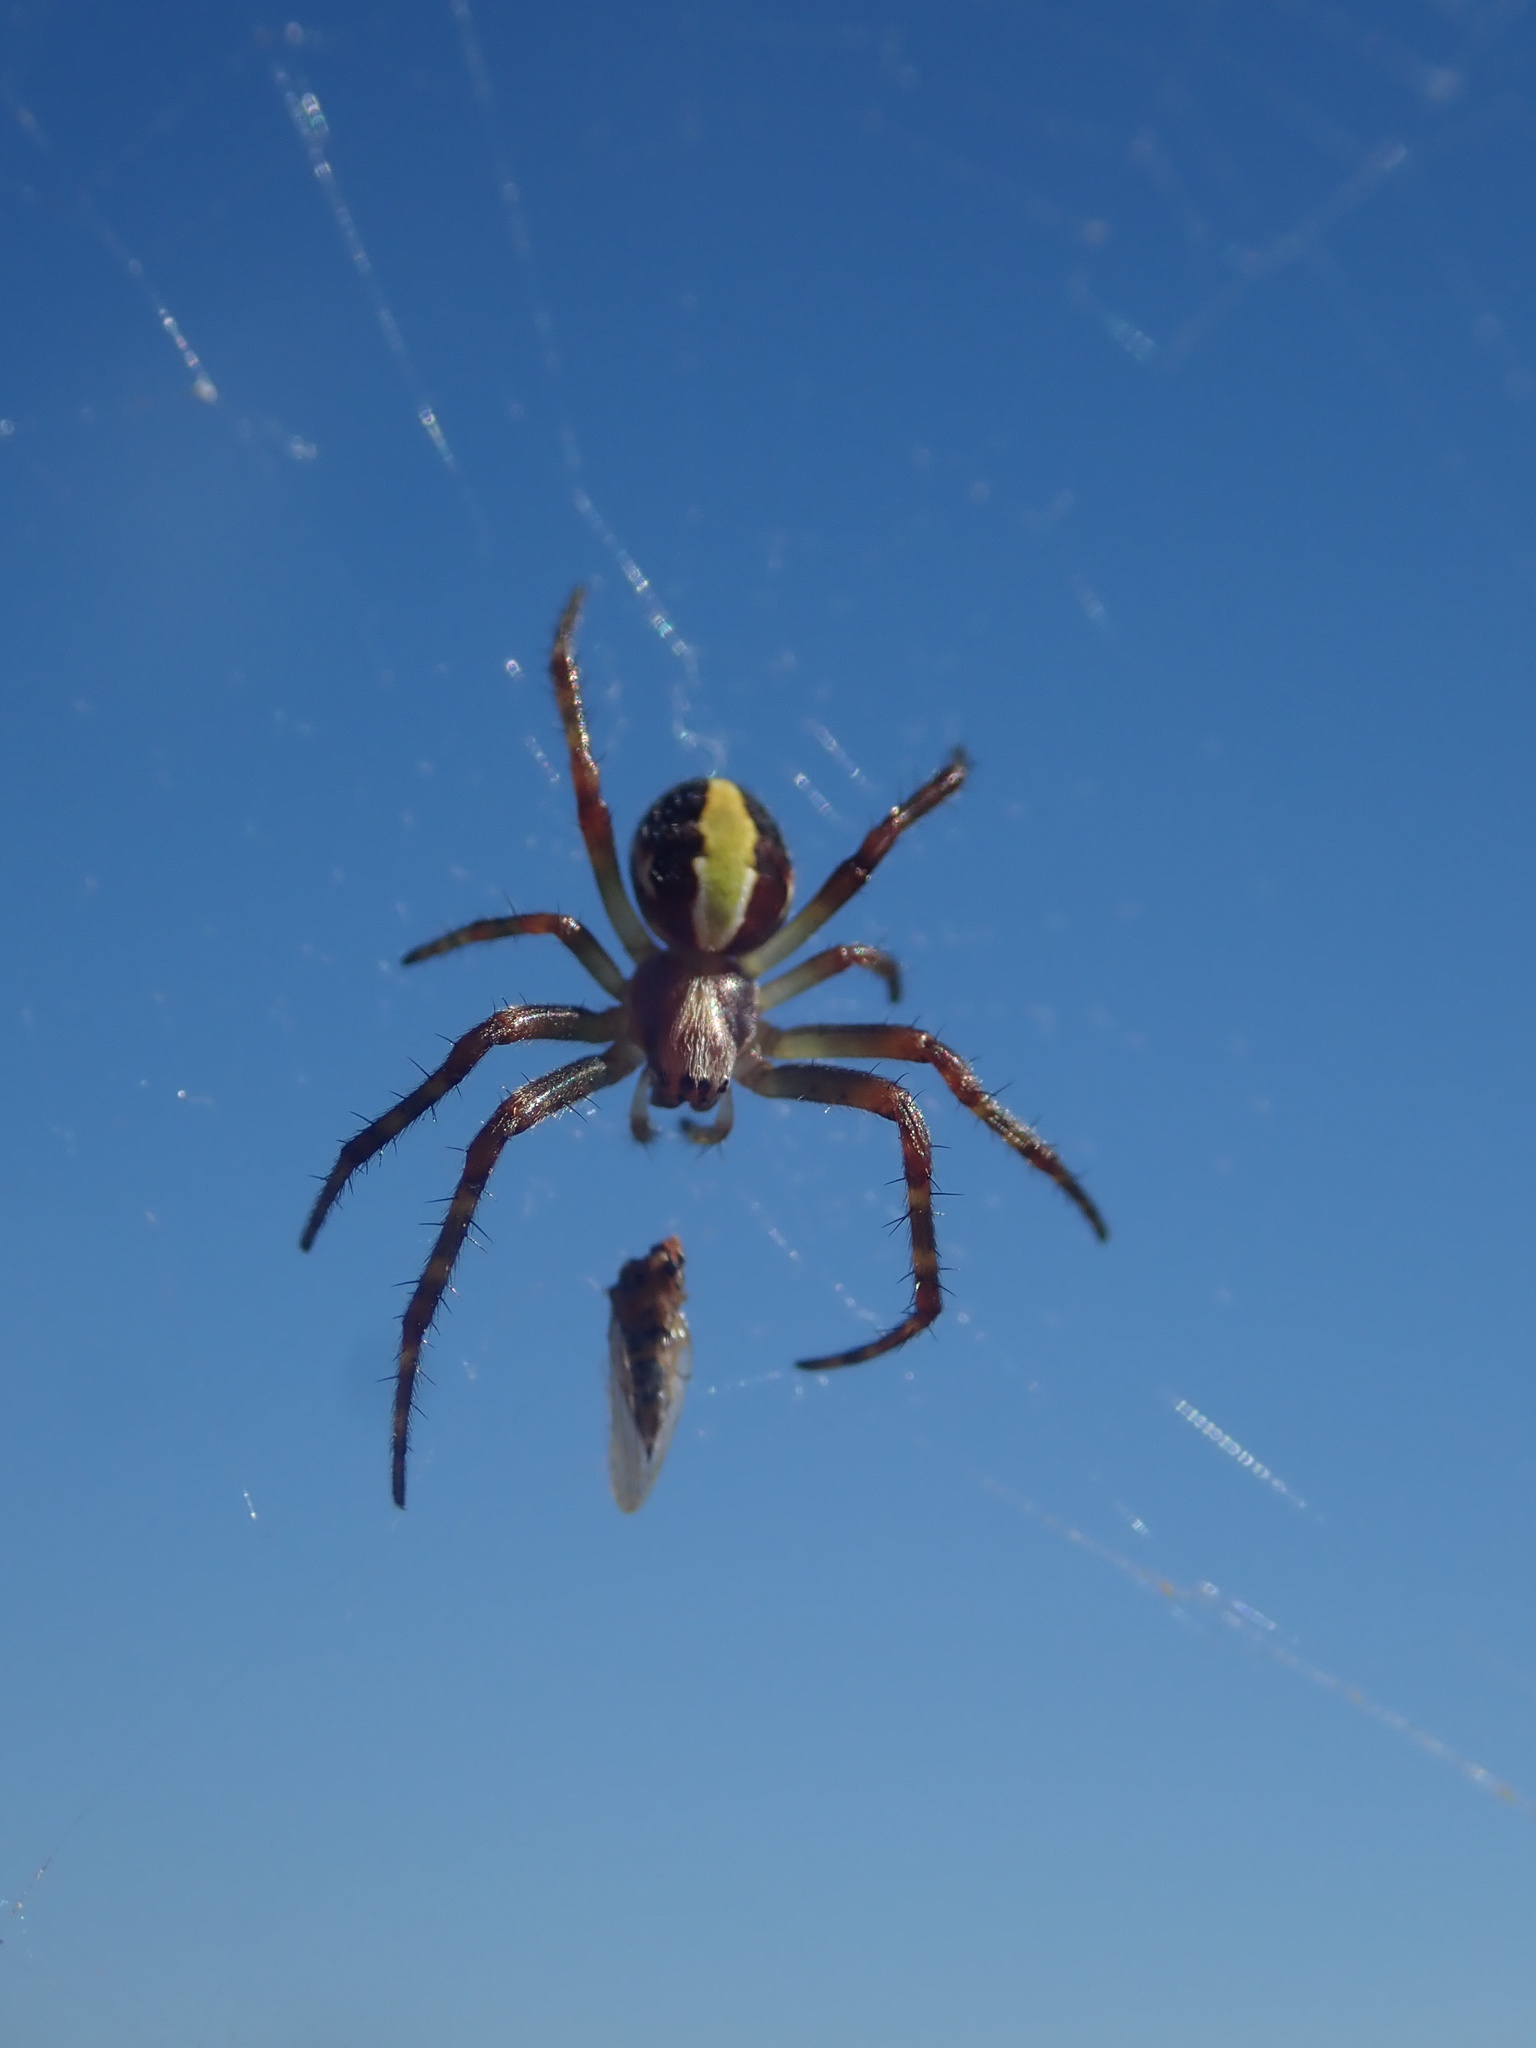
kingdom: Animalia
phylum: Arthropoda
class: Arachnida
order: Araneae
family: Araneidae
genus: Novaranea
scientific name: Novaranea queribunda
